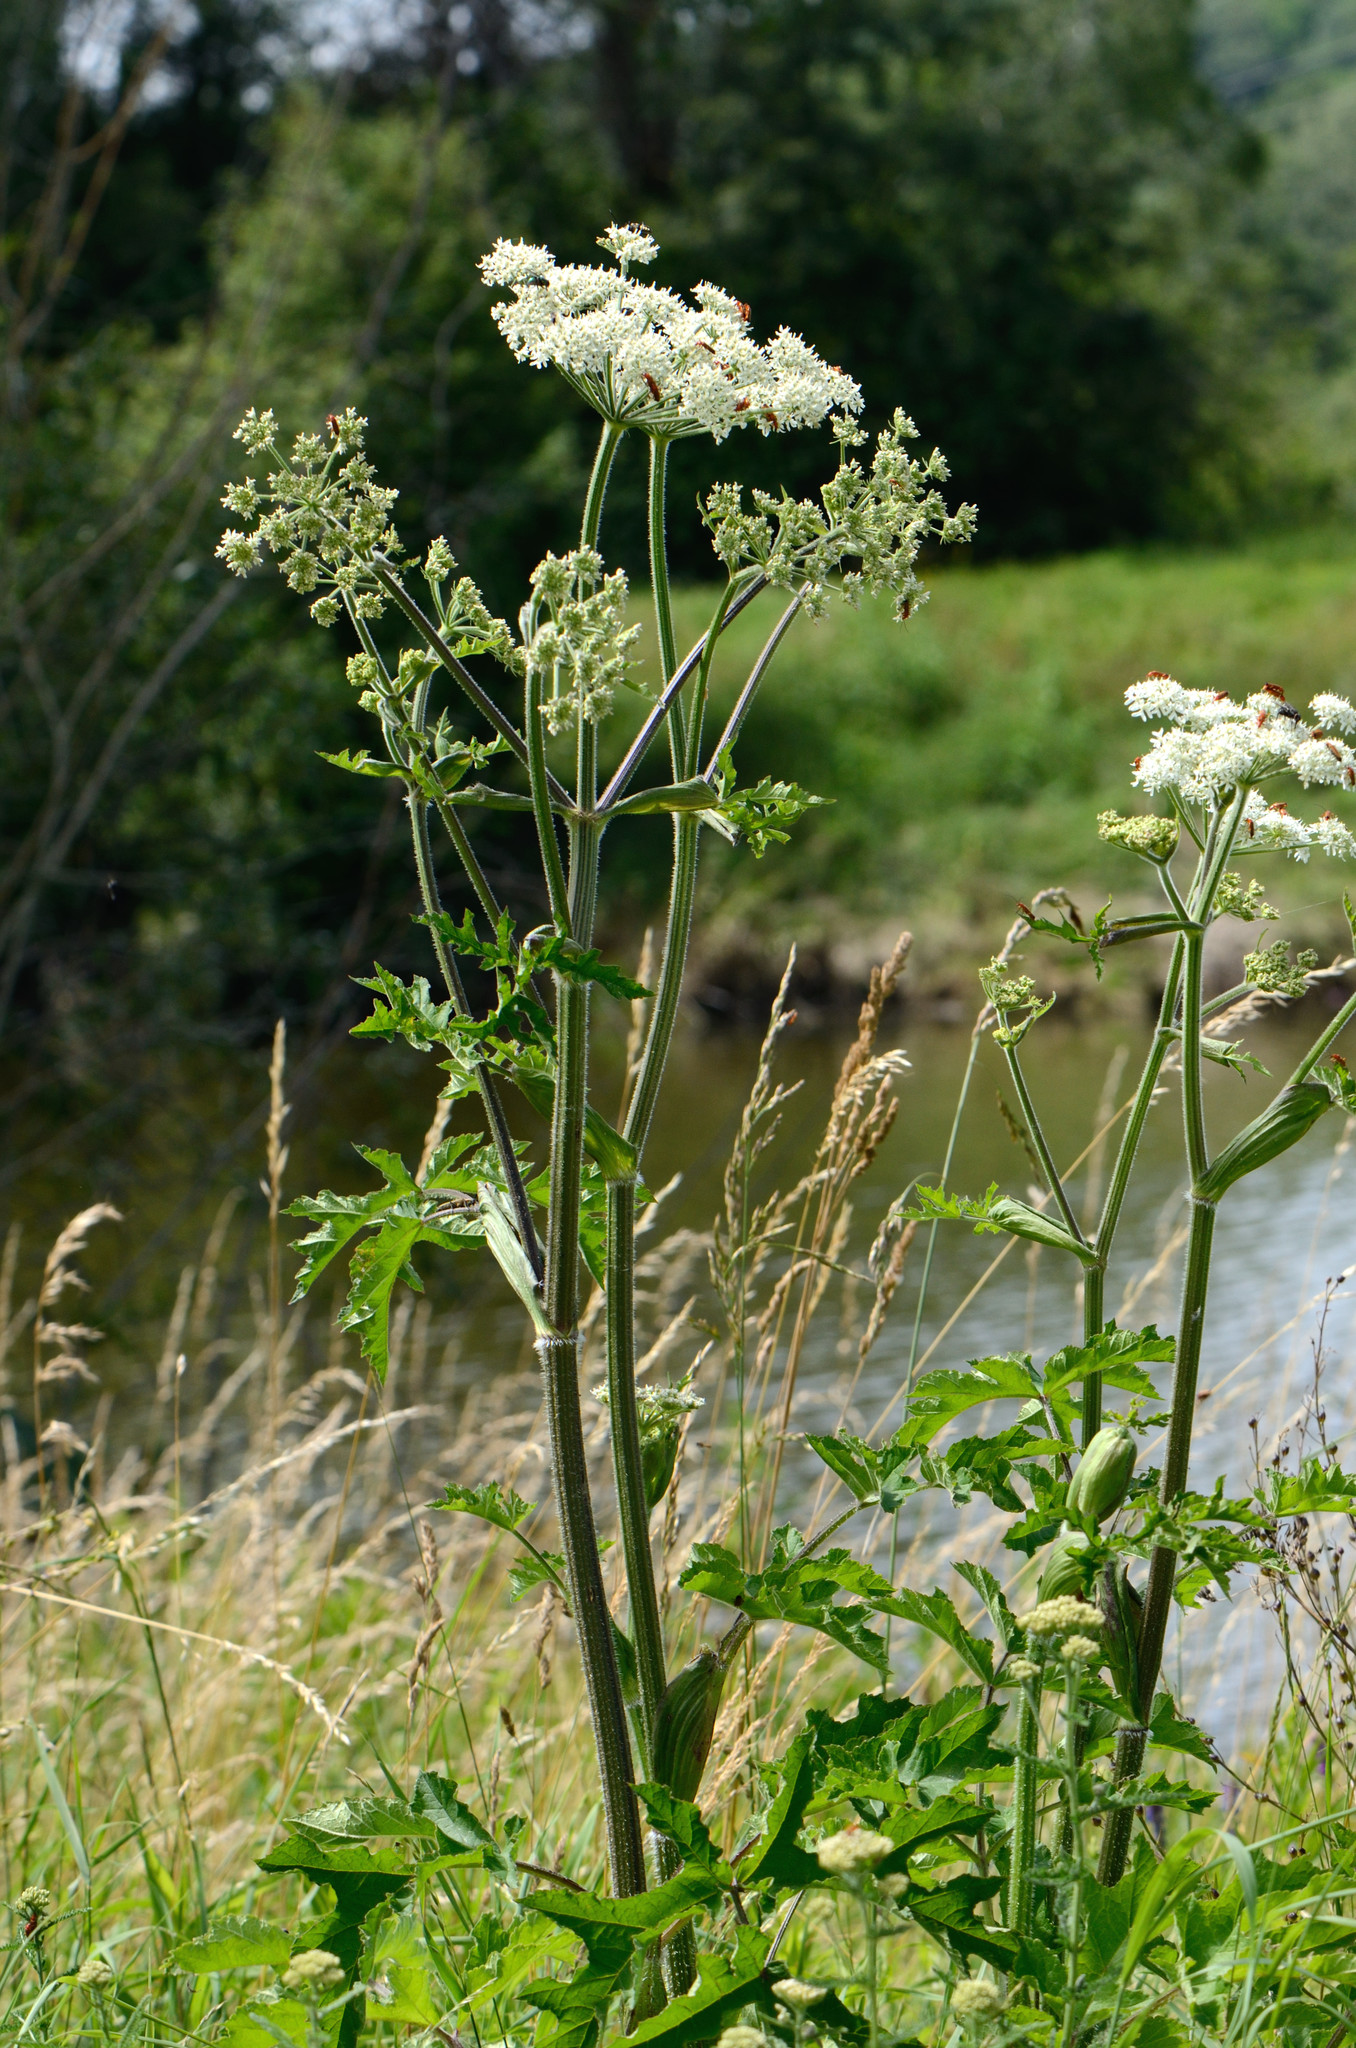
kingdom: Plantae
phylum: Tracheophyta
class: Magnoliopsida
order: Apiales
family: Apiaceae
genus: Heracleum
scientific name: Heracleum sphondylium
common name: Hogweed
